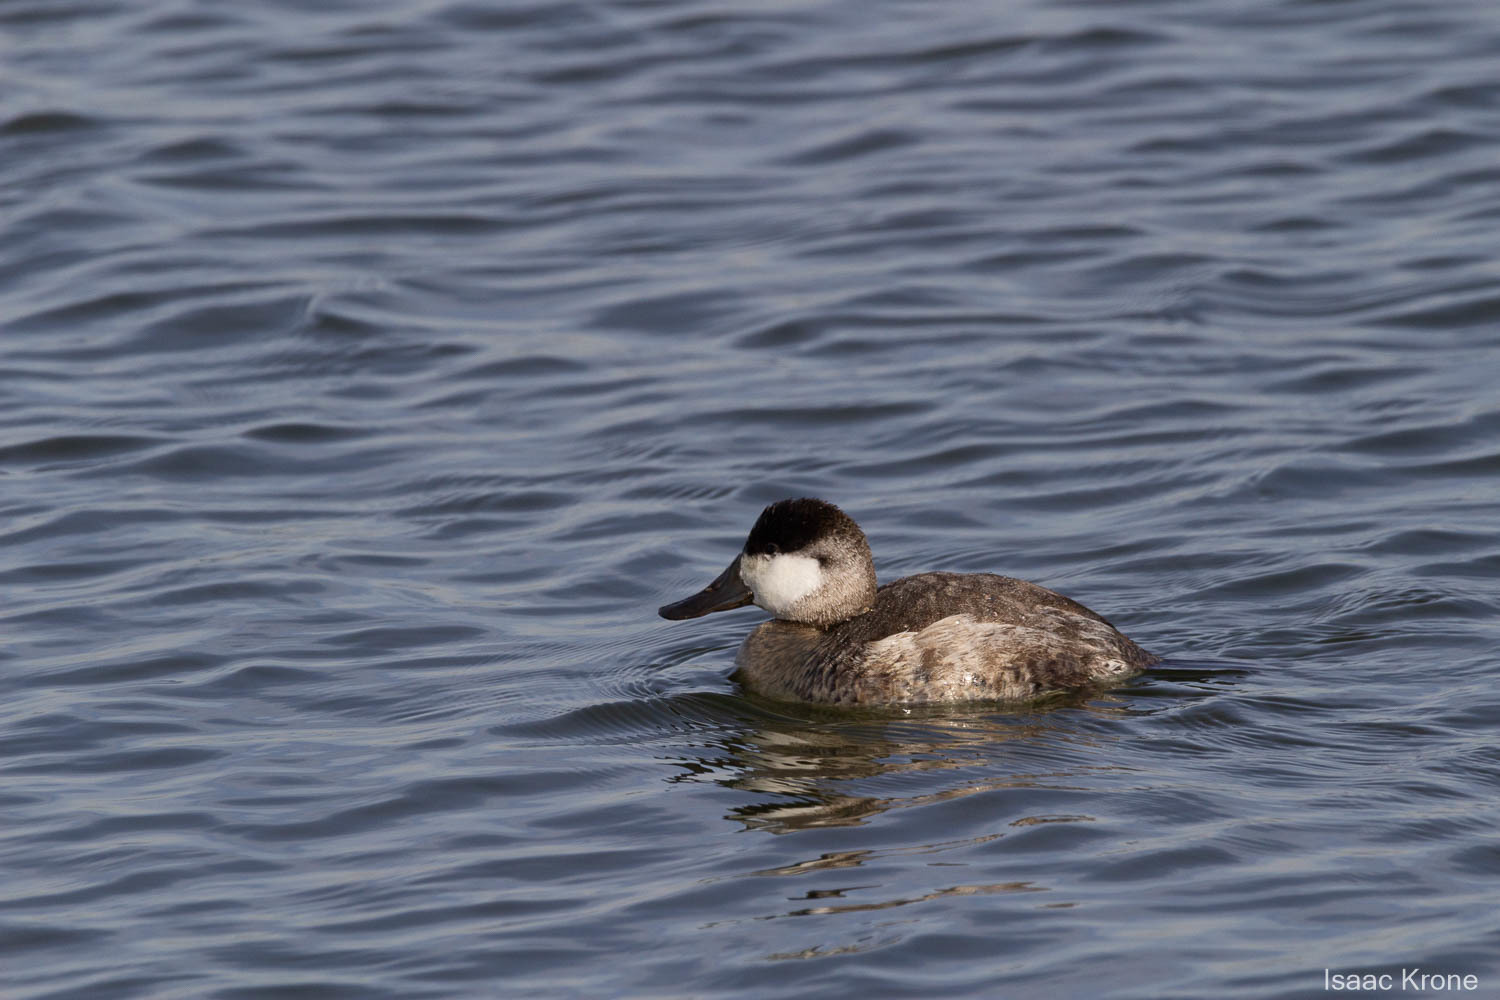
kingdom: Animalia
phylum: Chordata
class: Aves
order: Anseriformes
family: Anatidae
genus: Oxyura
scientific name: Oxyura jamaicensis
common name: Ruddy duck
